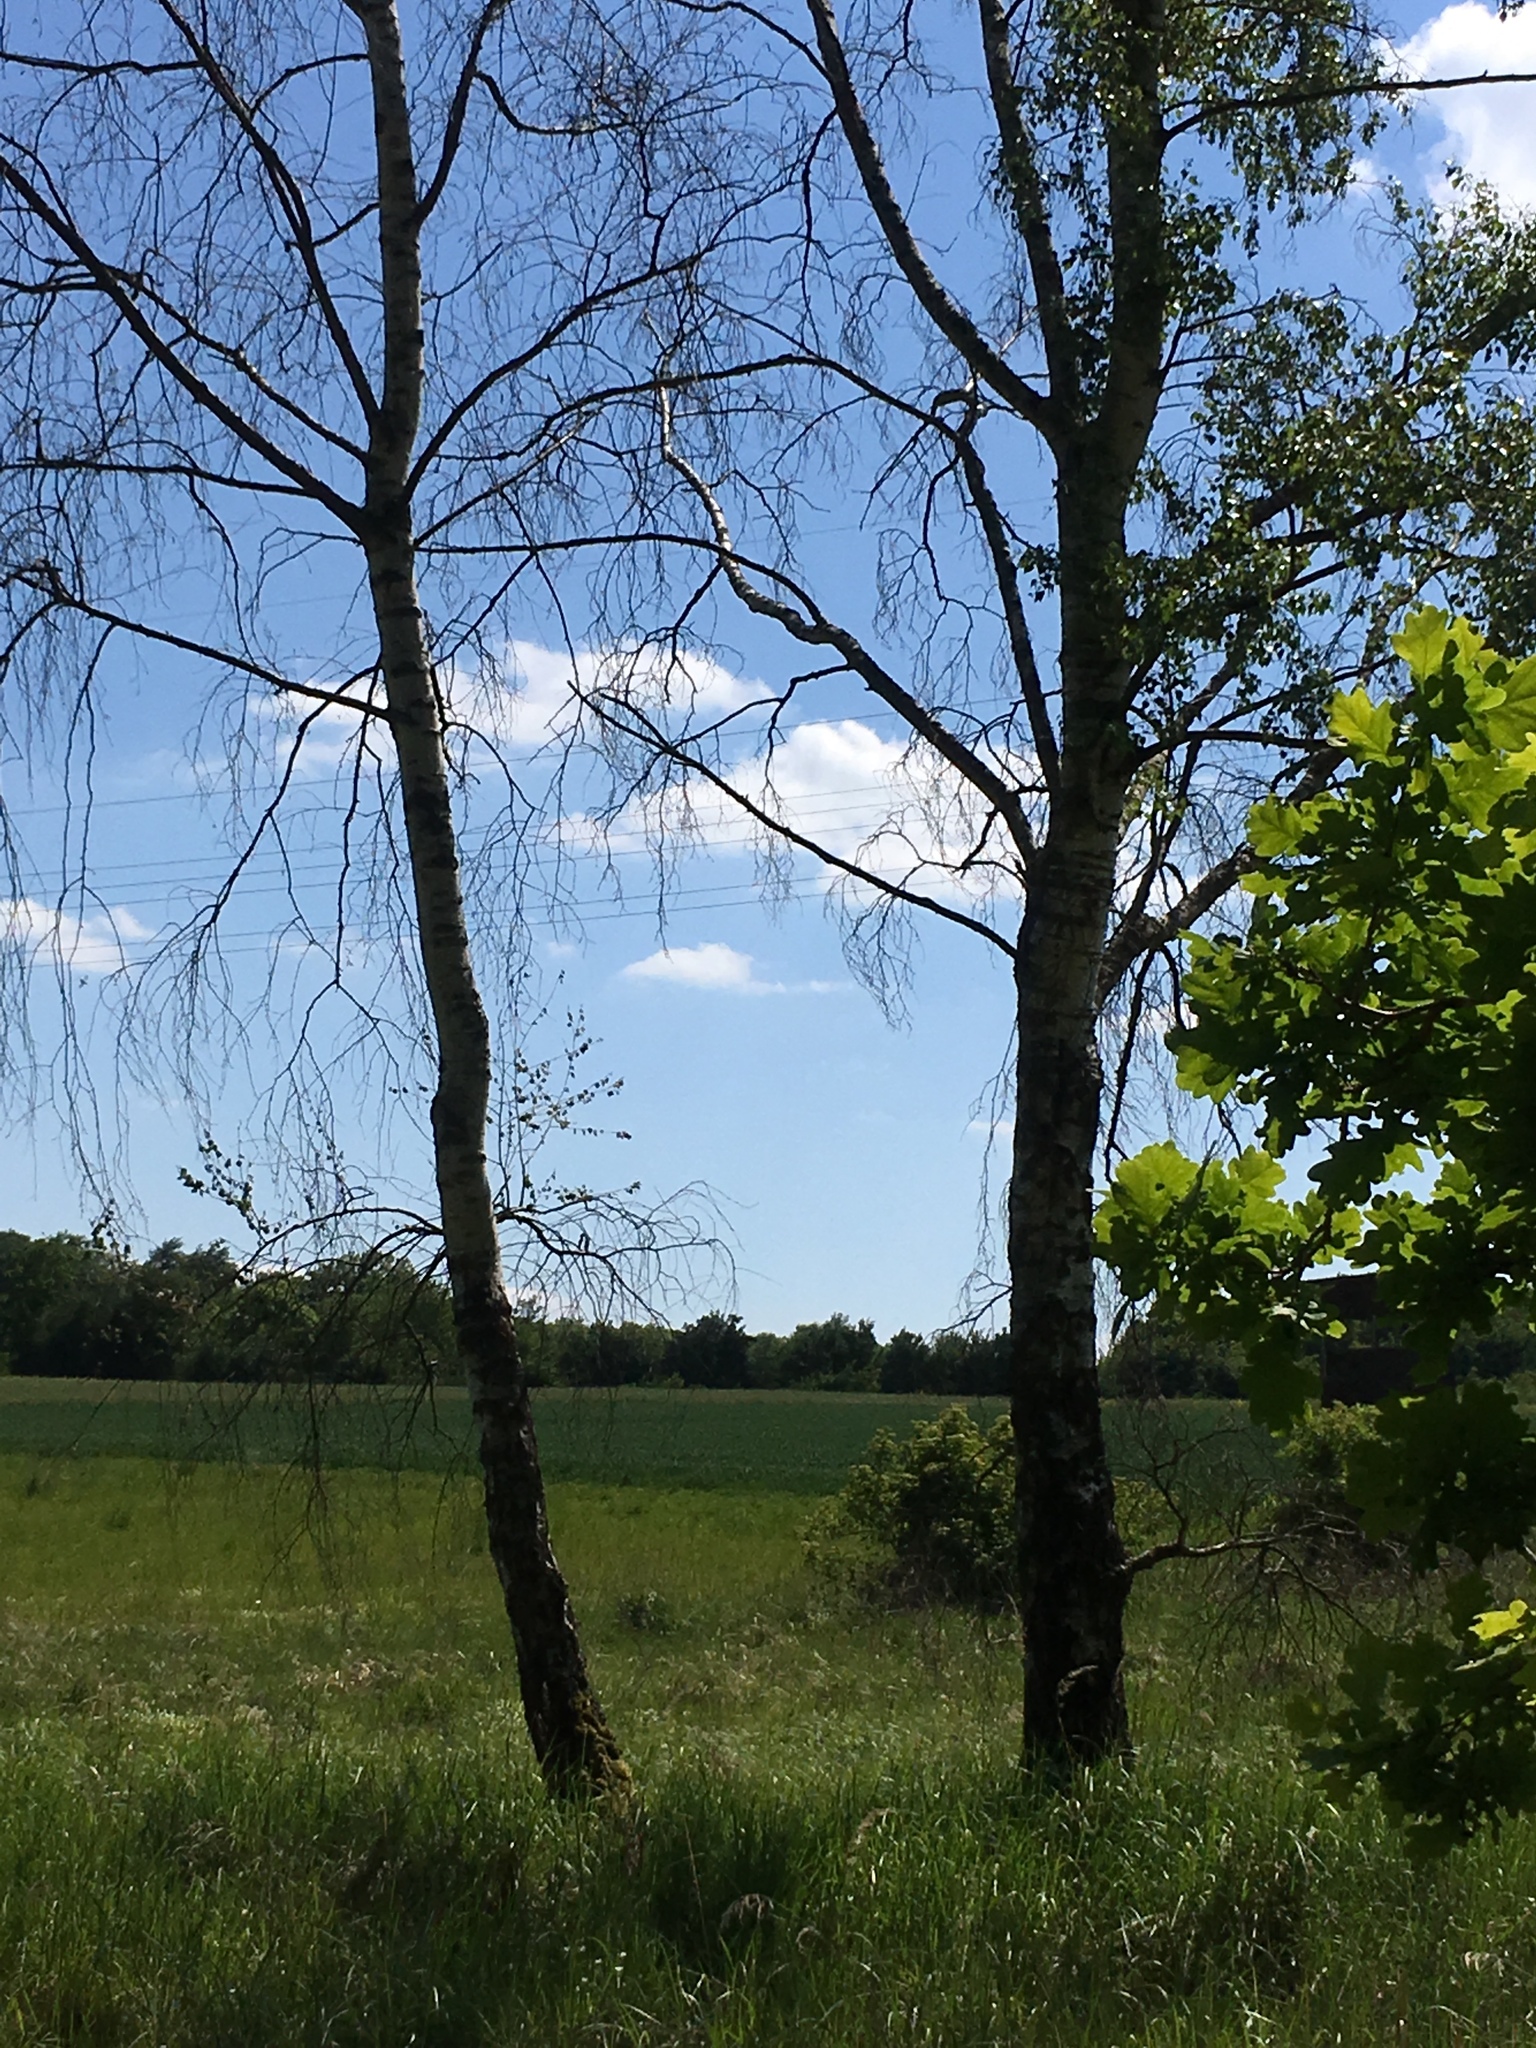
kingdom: Plantae
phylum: Tracheophyta
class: Magnoliopsida
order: Fagales
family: Betulaceae
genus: Betula
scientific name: Betula pendula
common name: Silver birch
